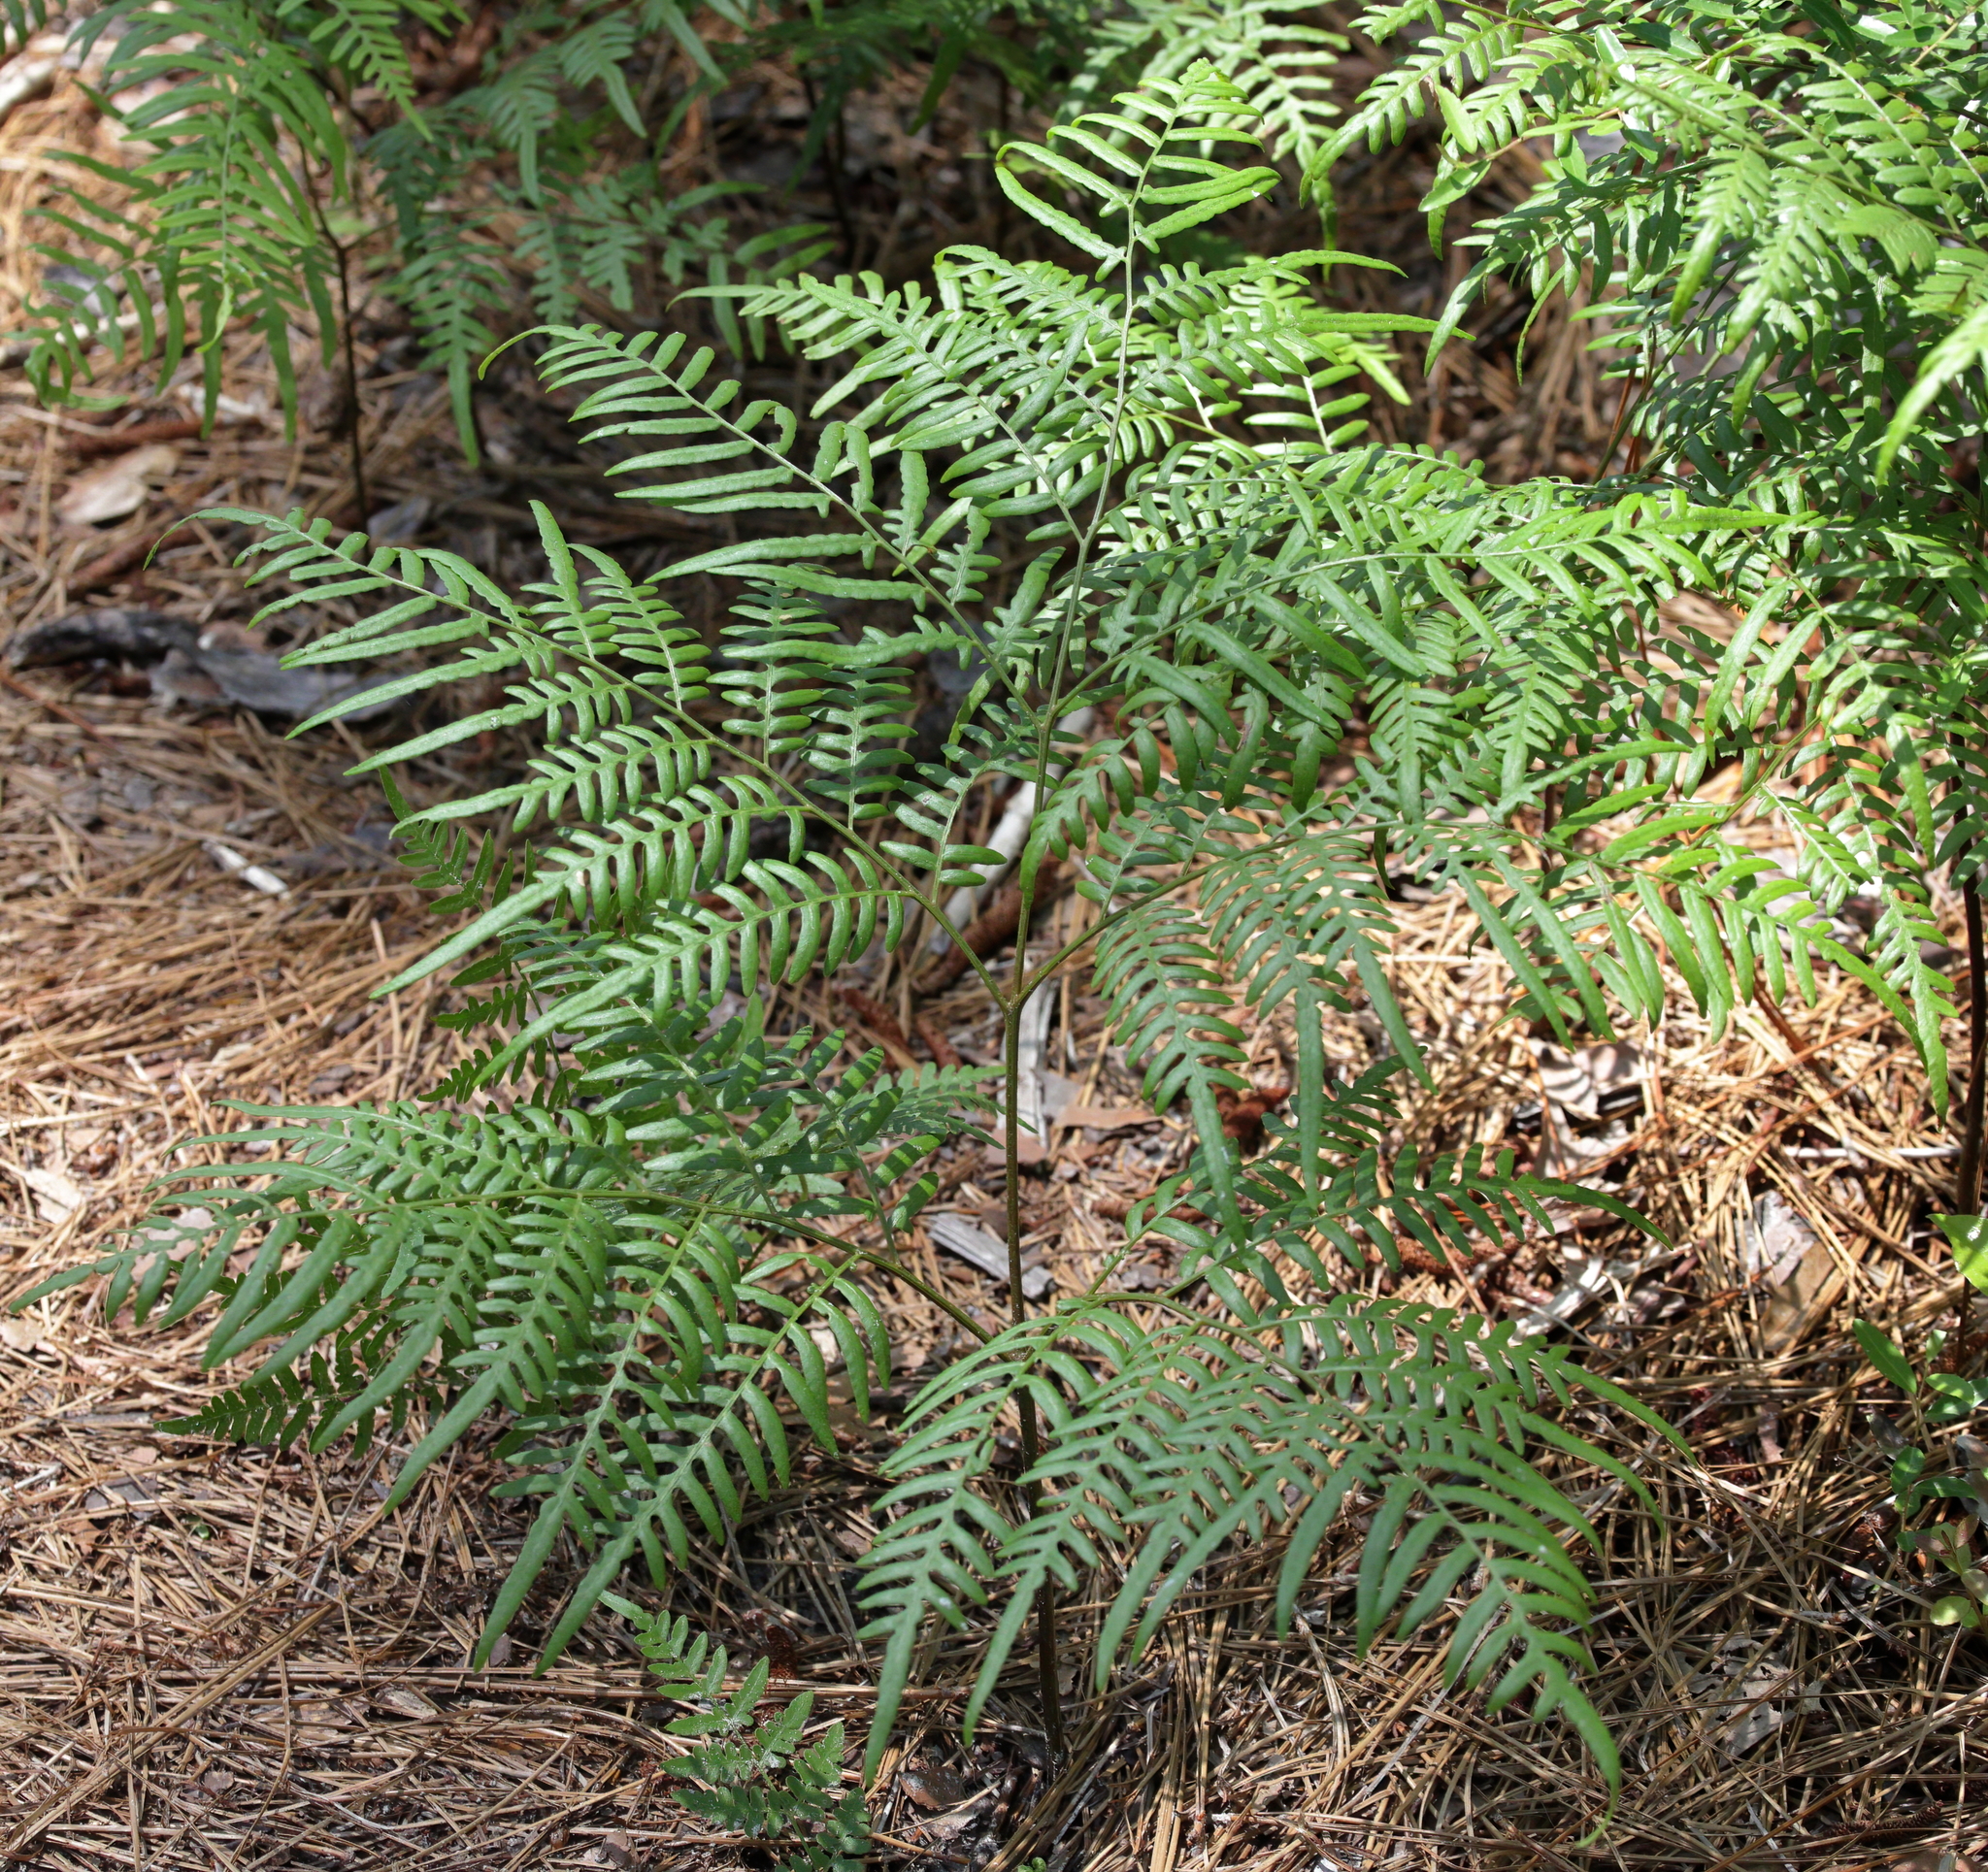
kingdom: Plantae
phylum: Tracheophyta
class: Polypodiopsida
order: Polypodiales
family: Dennstaedtiaceae
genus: Pteridium
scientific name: Pteridium aquilinum
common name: Bracken
